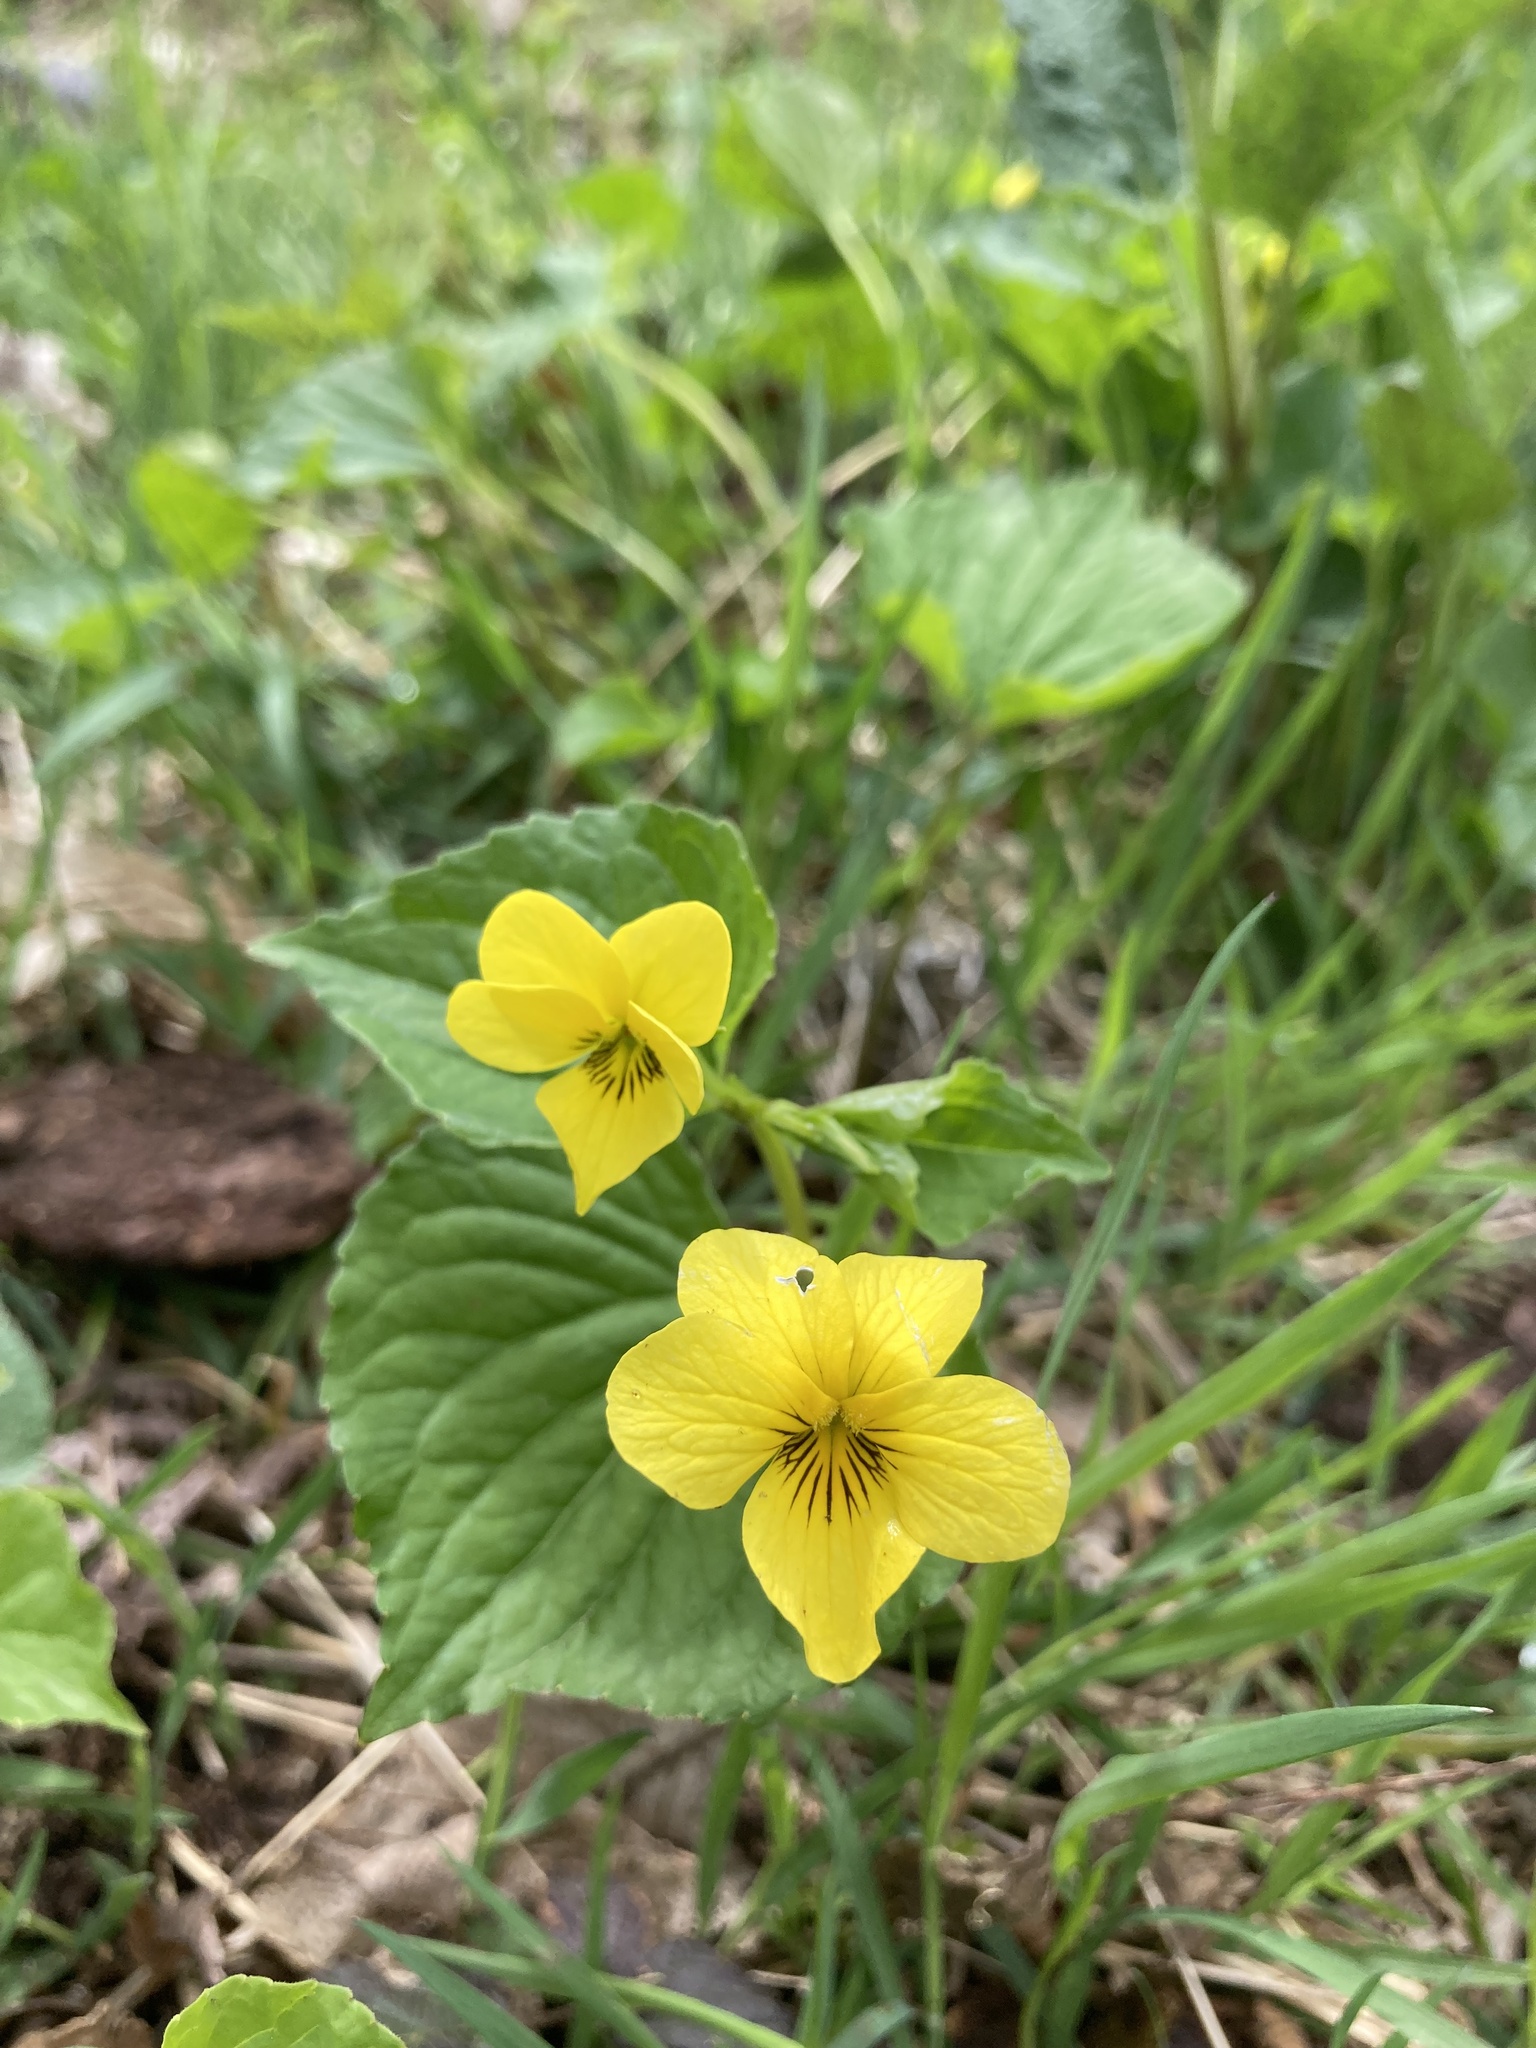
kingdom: Plantae
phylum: Tracheophyta
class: Magnoliopsida
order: Malpighiales
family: Violaceae
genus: Viola
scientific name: Viola glabella
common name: Stream violet
